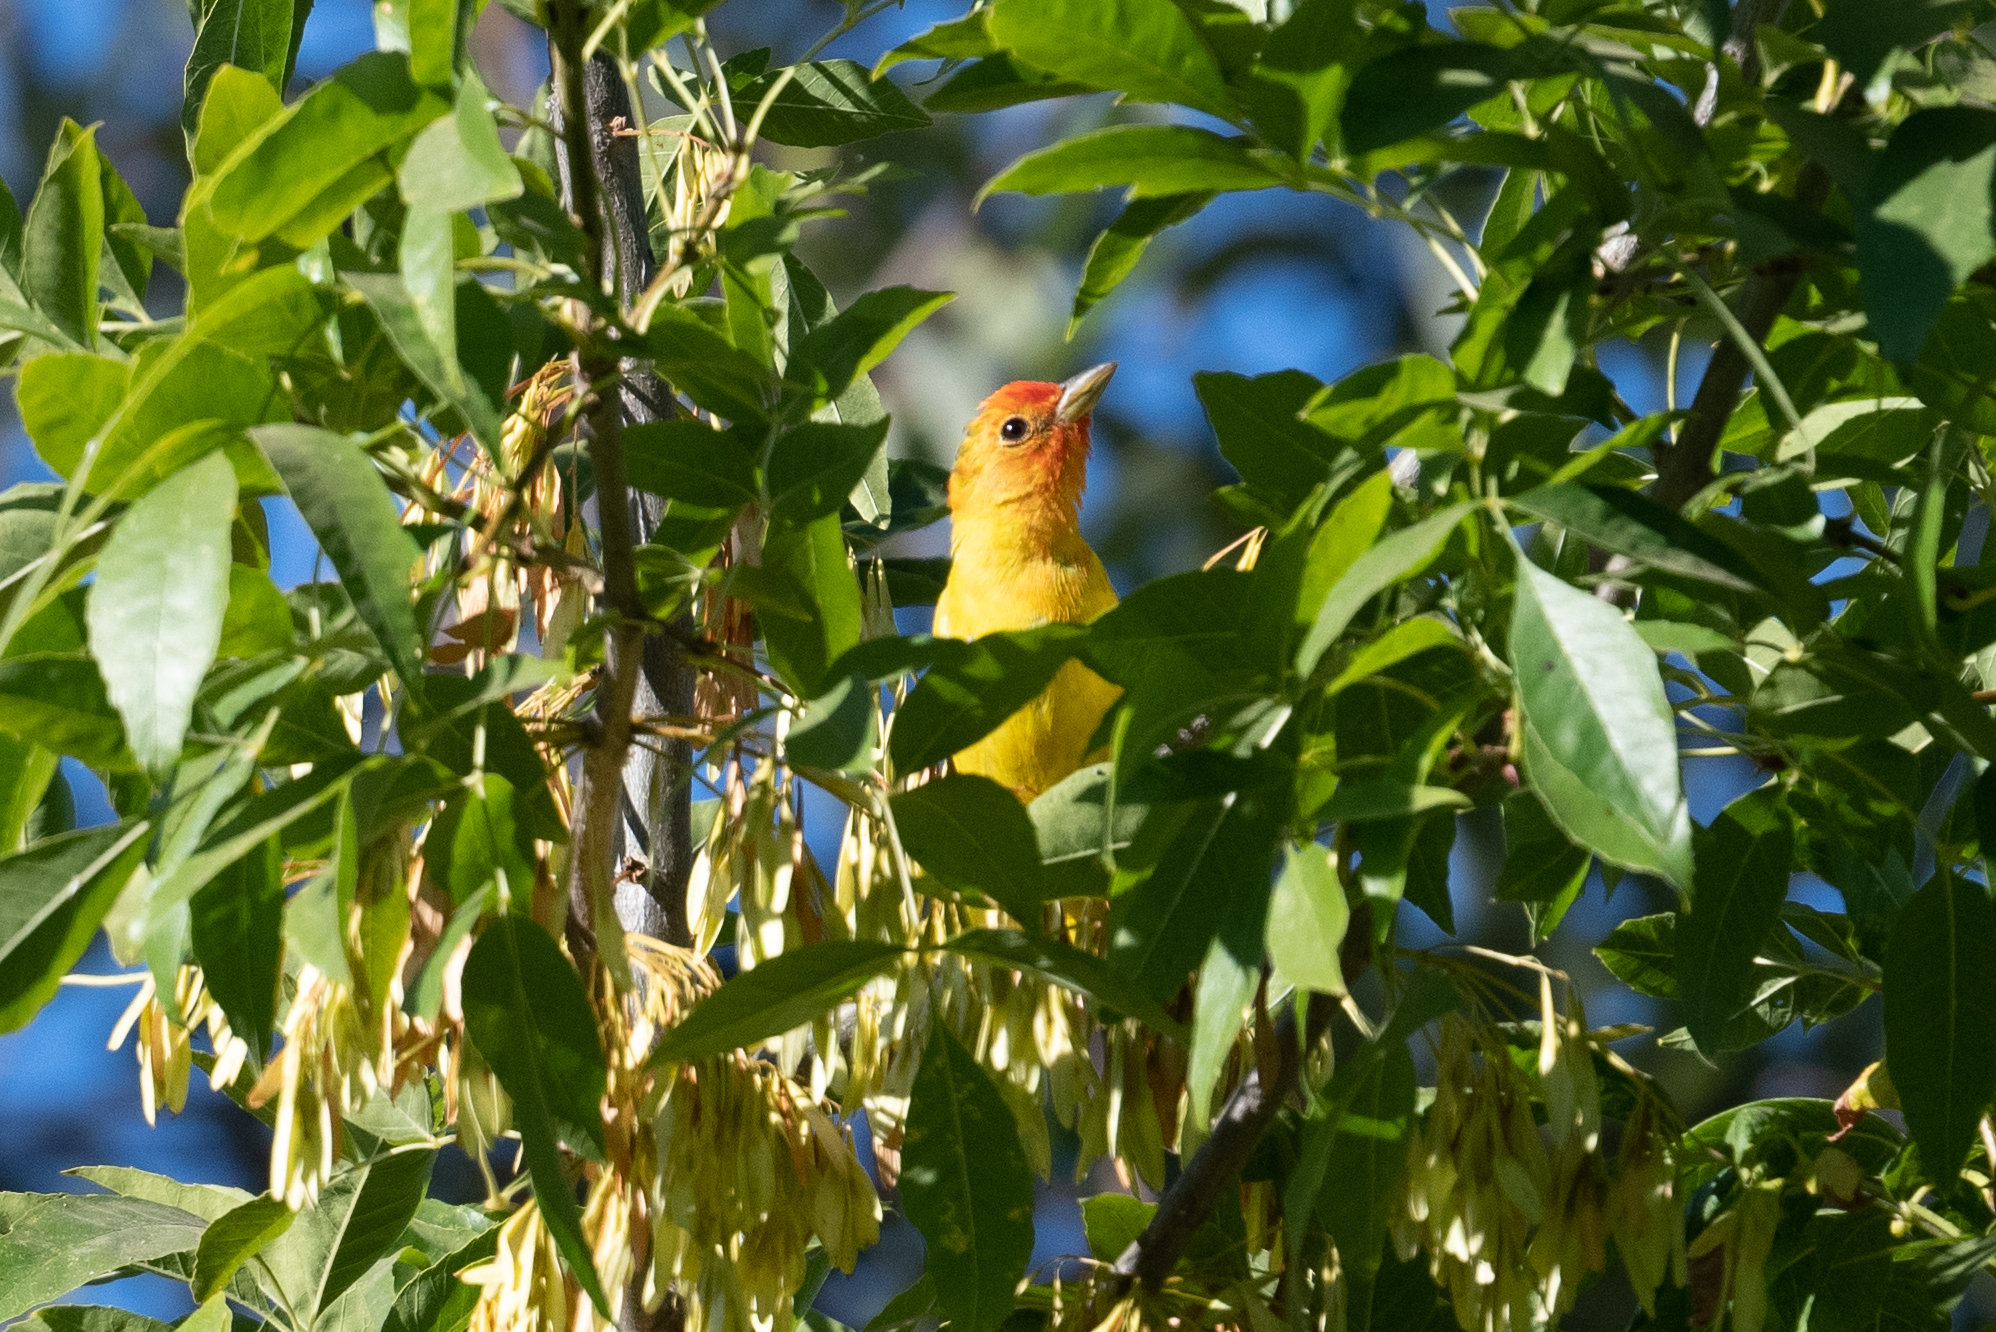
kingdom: Animalia
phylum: Chordata
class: Aves
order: Passeriformes
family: Cardinalidae
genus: Piranga
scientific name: Piranga ludoviciana
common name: Western tanager
